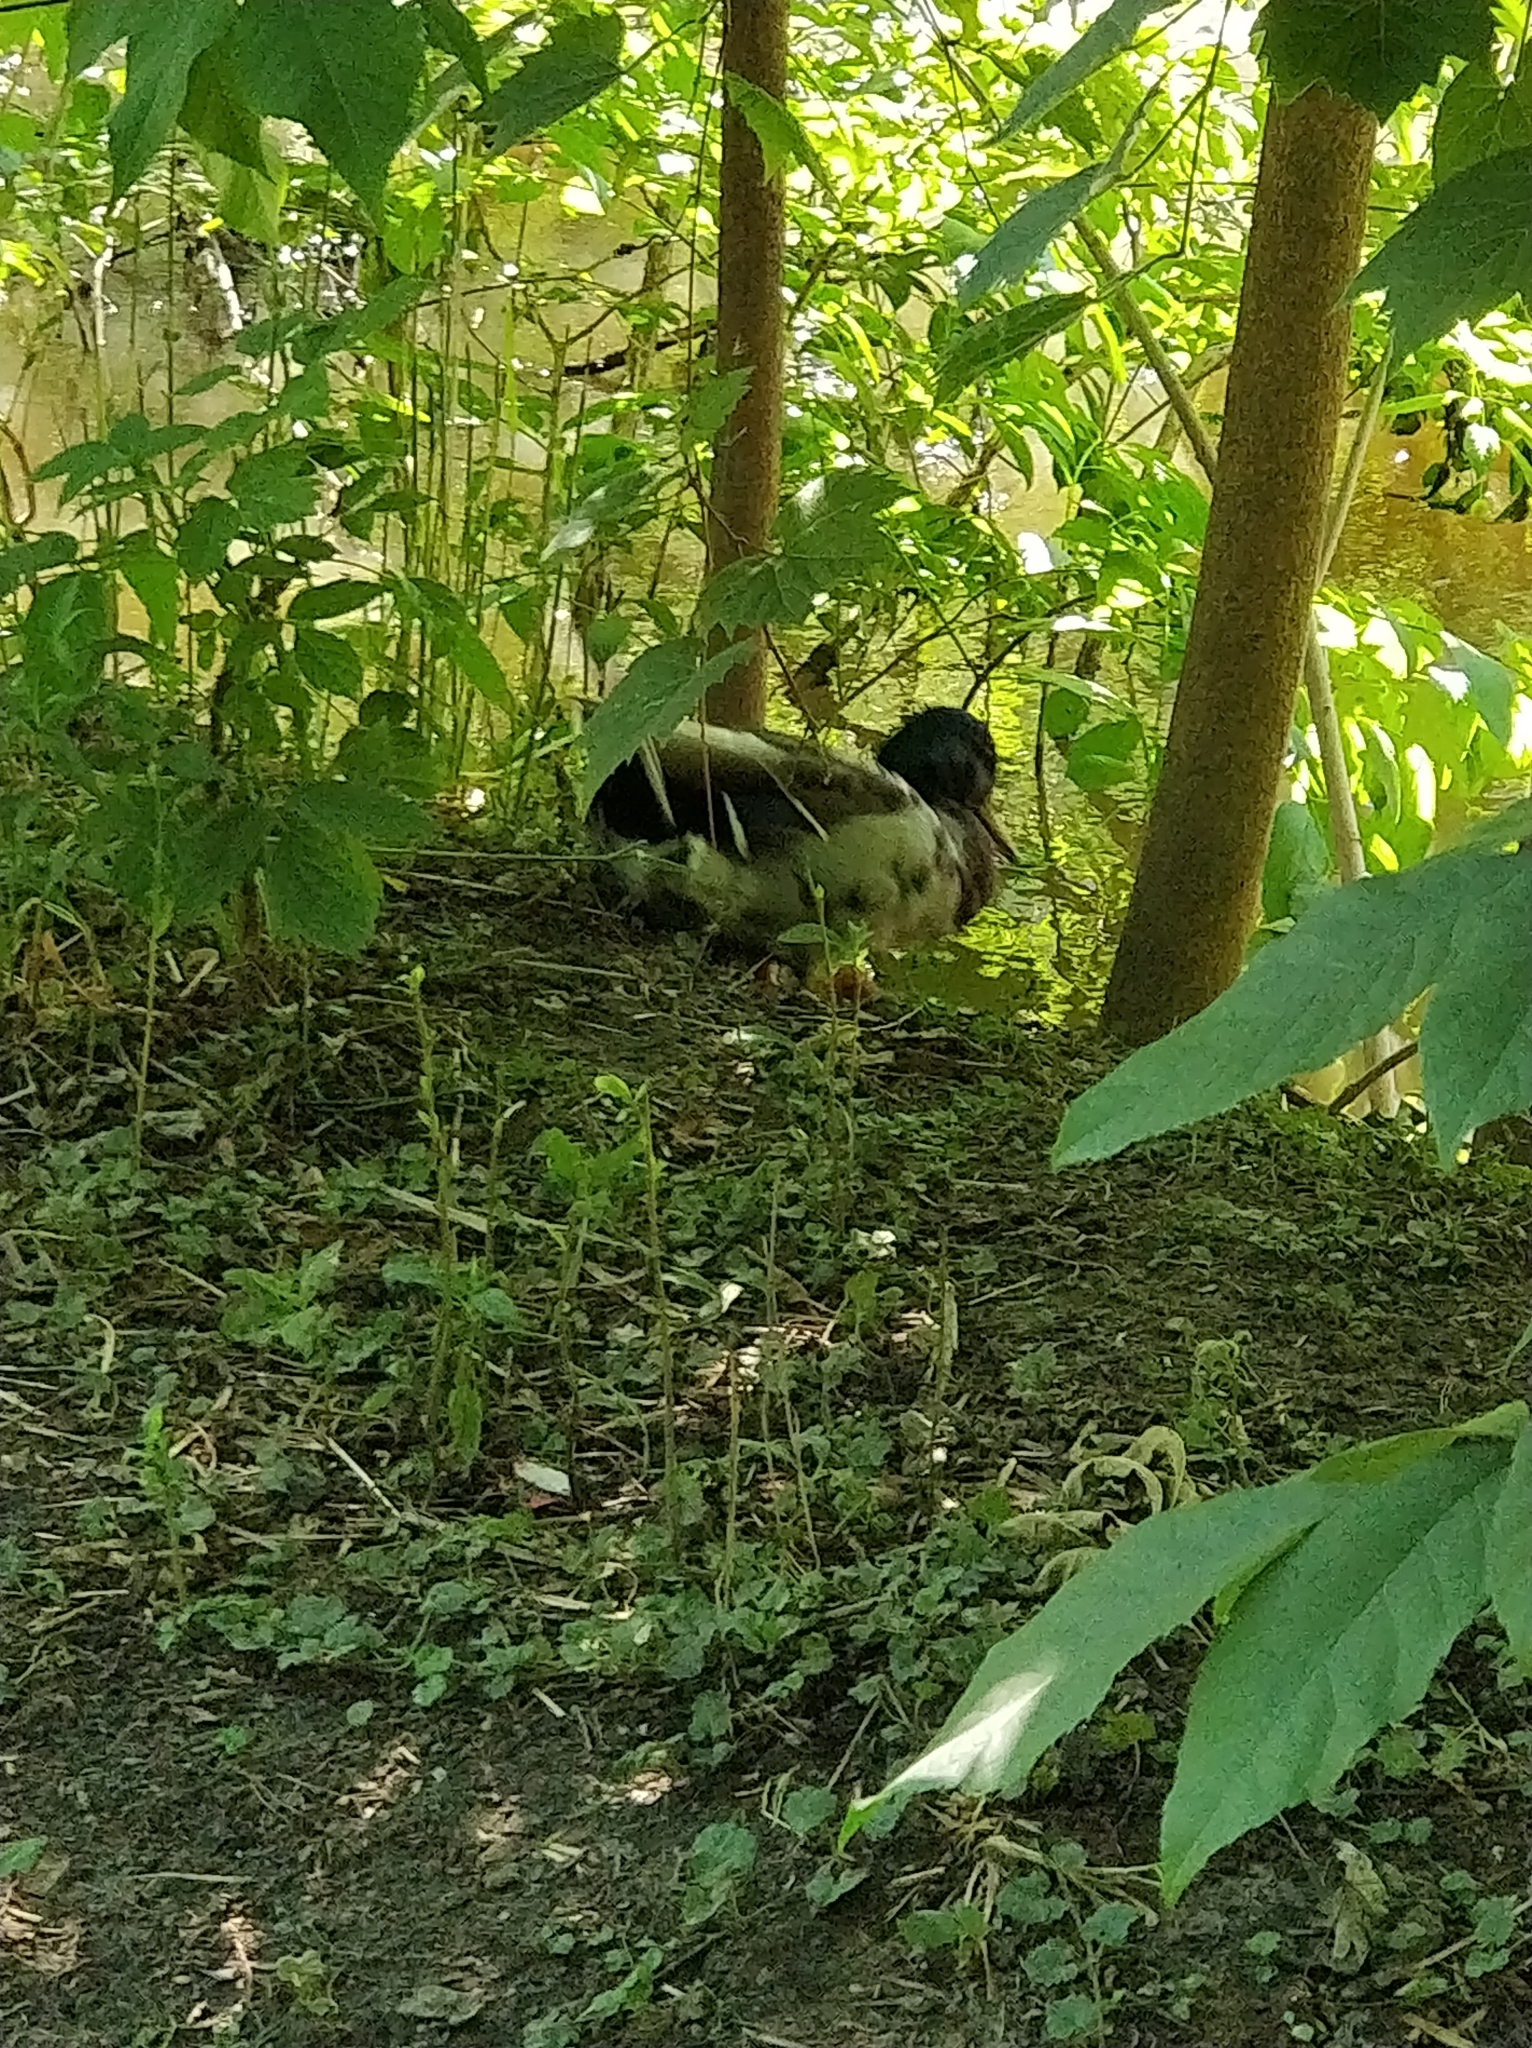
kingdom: Animalia
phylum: Chordata
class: Aves
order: Anseriformes
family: Anatidae
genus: Anas
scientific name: Anas platyrhynchos
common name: Mallard
